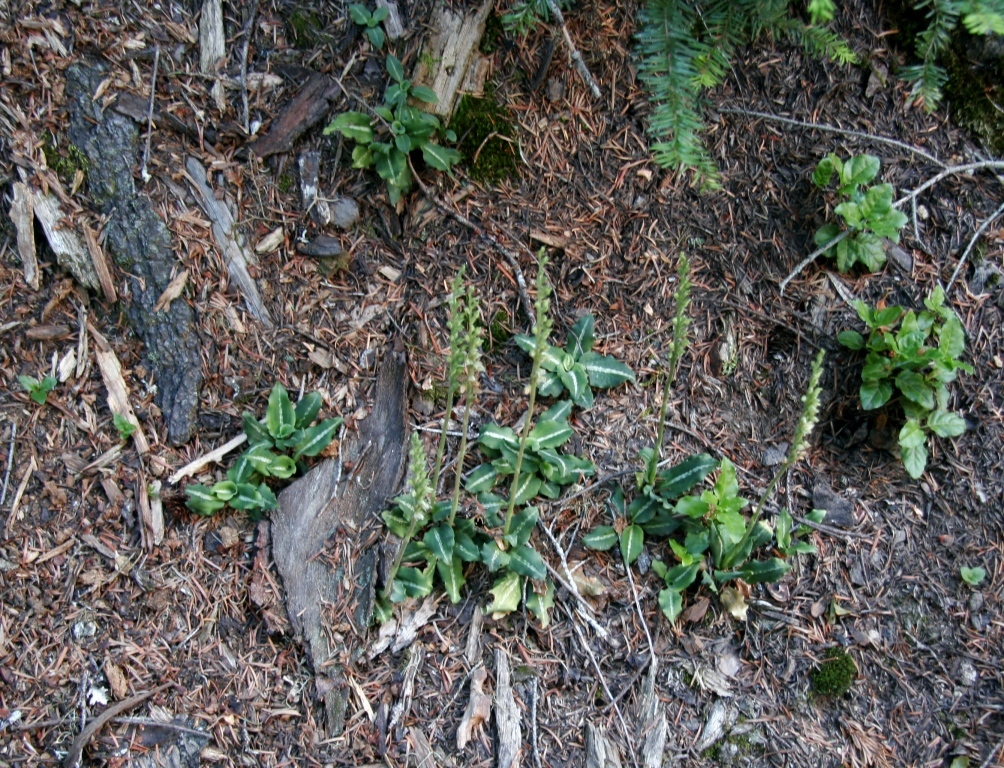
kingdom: Plantae
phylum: Tracheophyta
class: Liliopsida
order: Asparagales
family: Orchidaceae
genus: Goodyera
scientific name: Goodyera oblongifolia
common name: Giant rattlesnake-plantain
